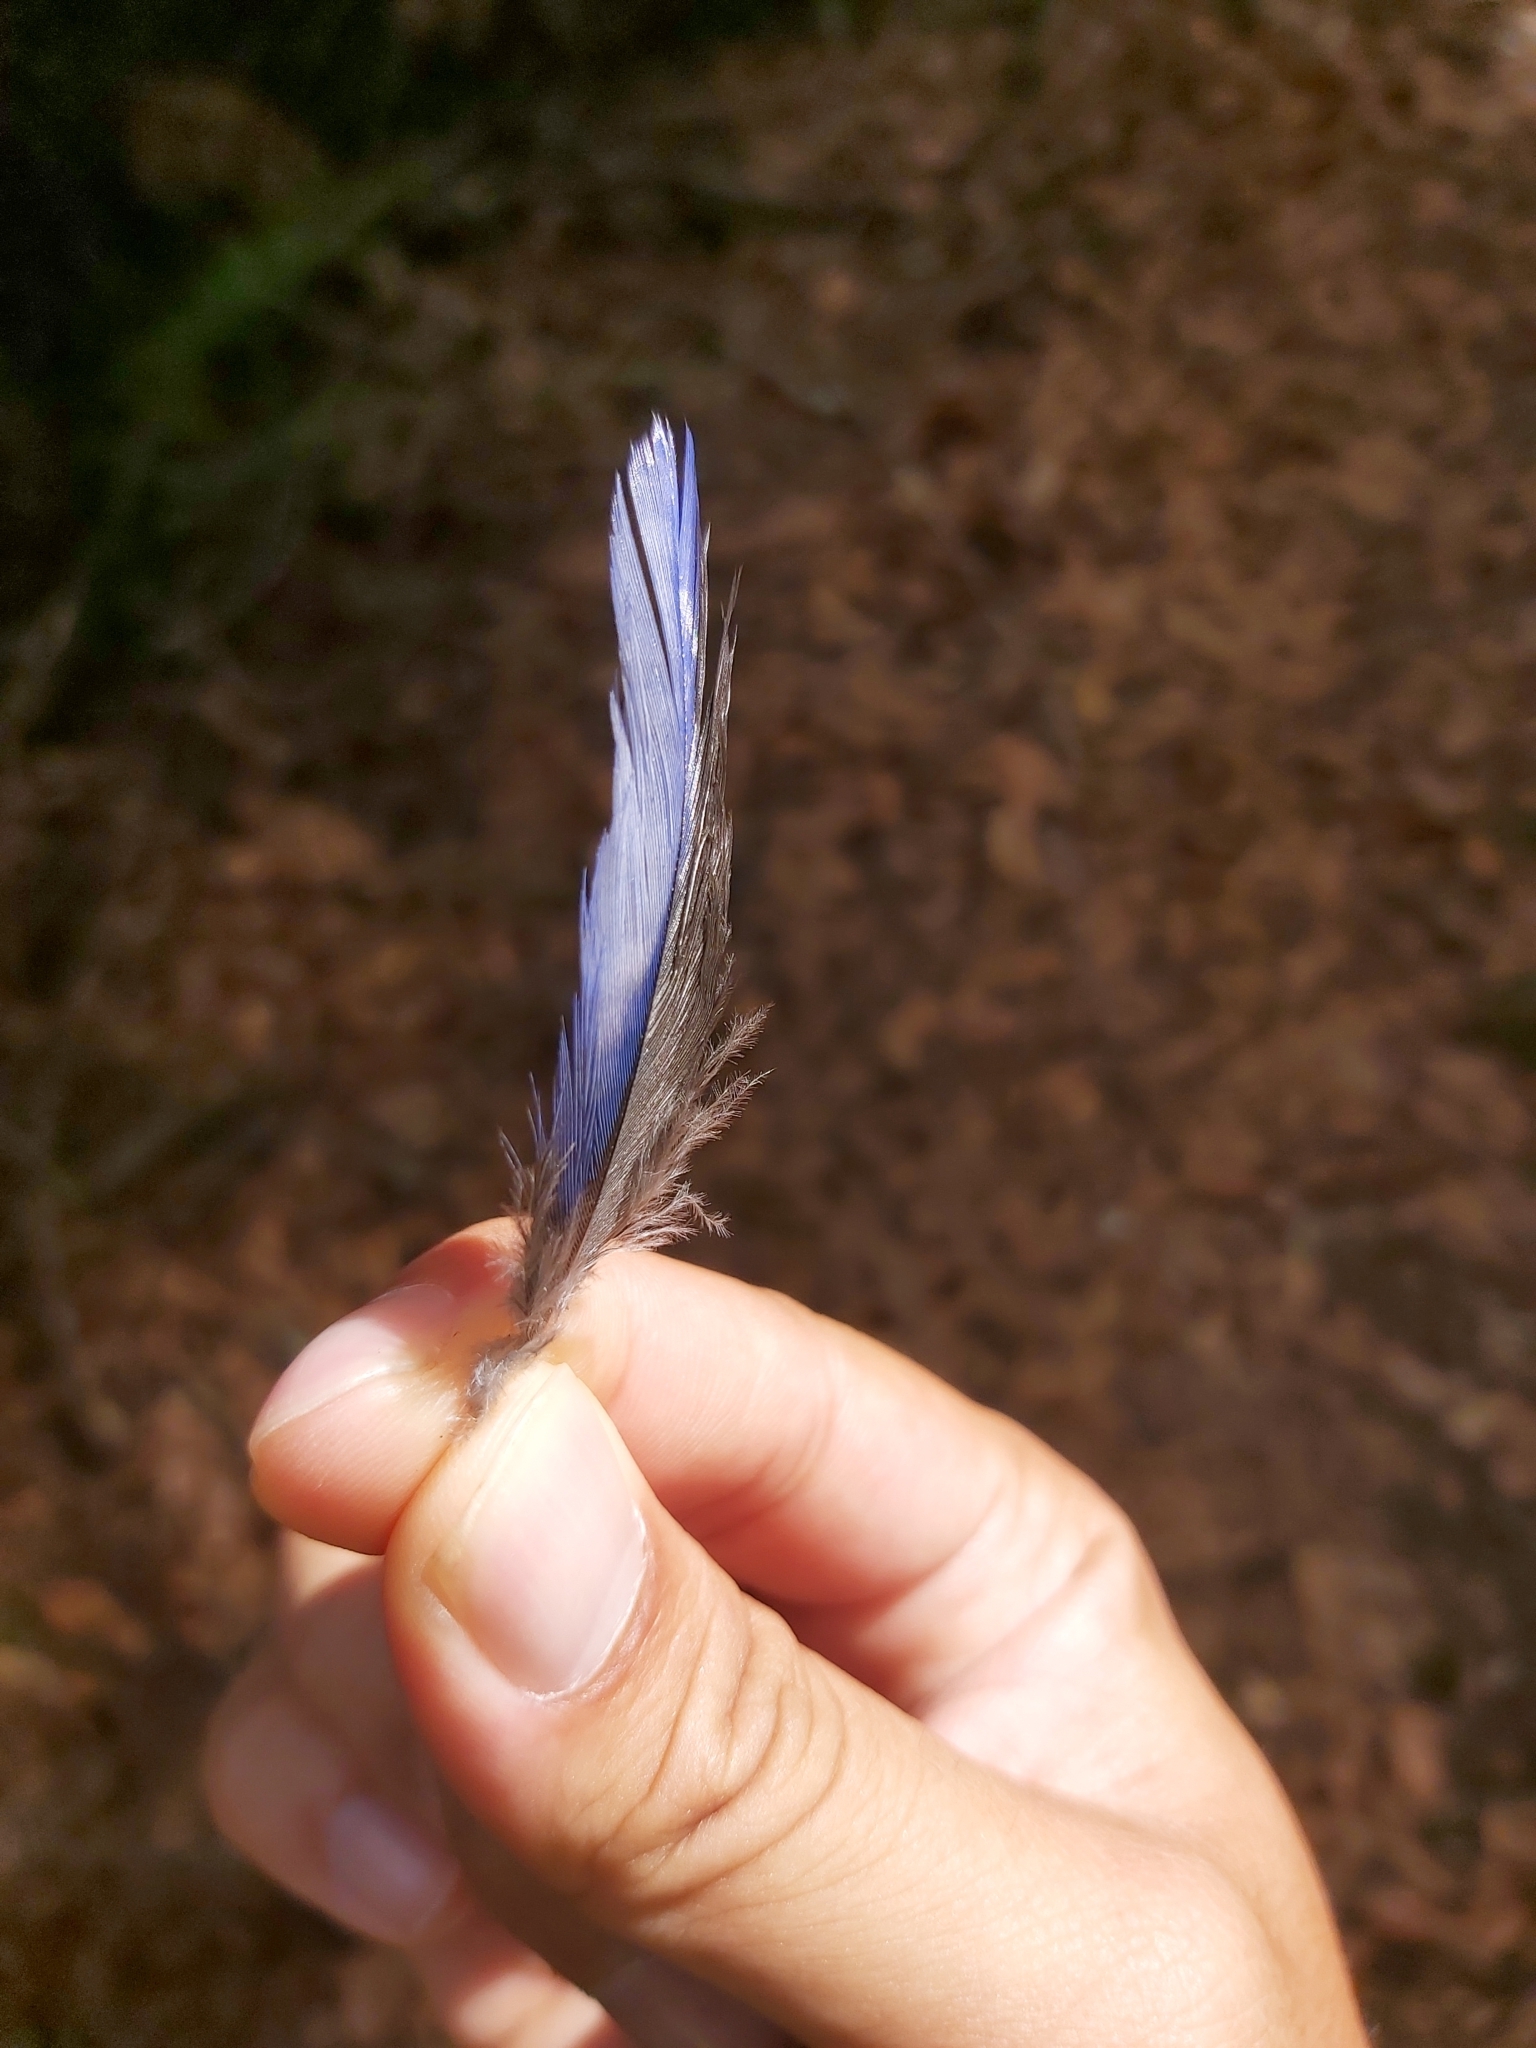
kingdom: Animalia
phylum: Chordata
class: Aves
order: Psittaciformes
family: Psittacidae
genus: Platycercus
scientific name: Platycercus elegans
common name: Crimson rosella
